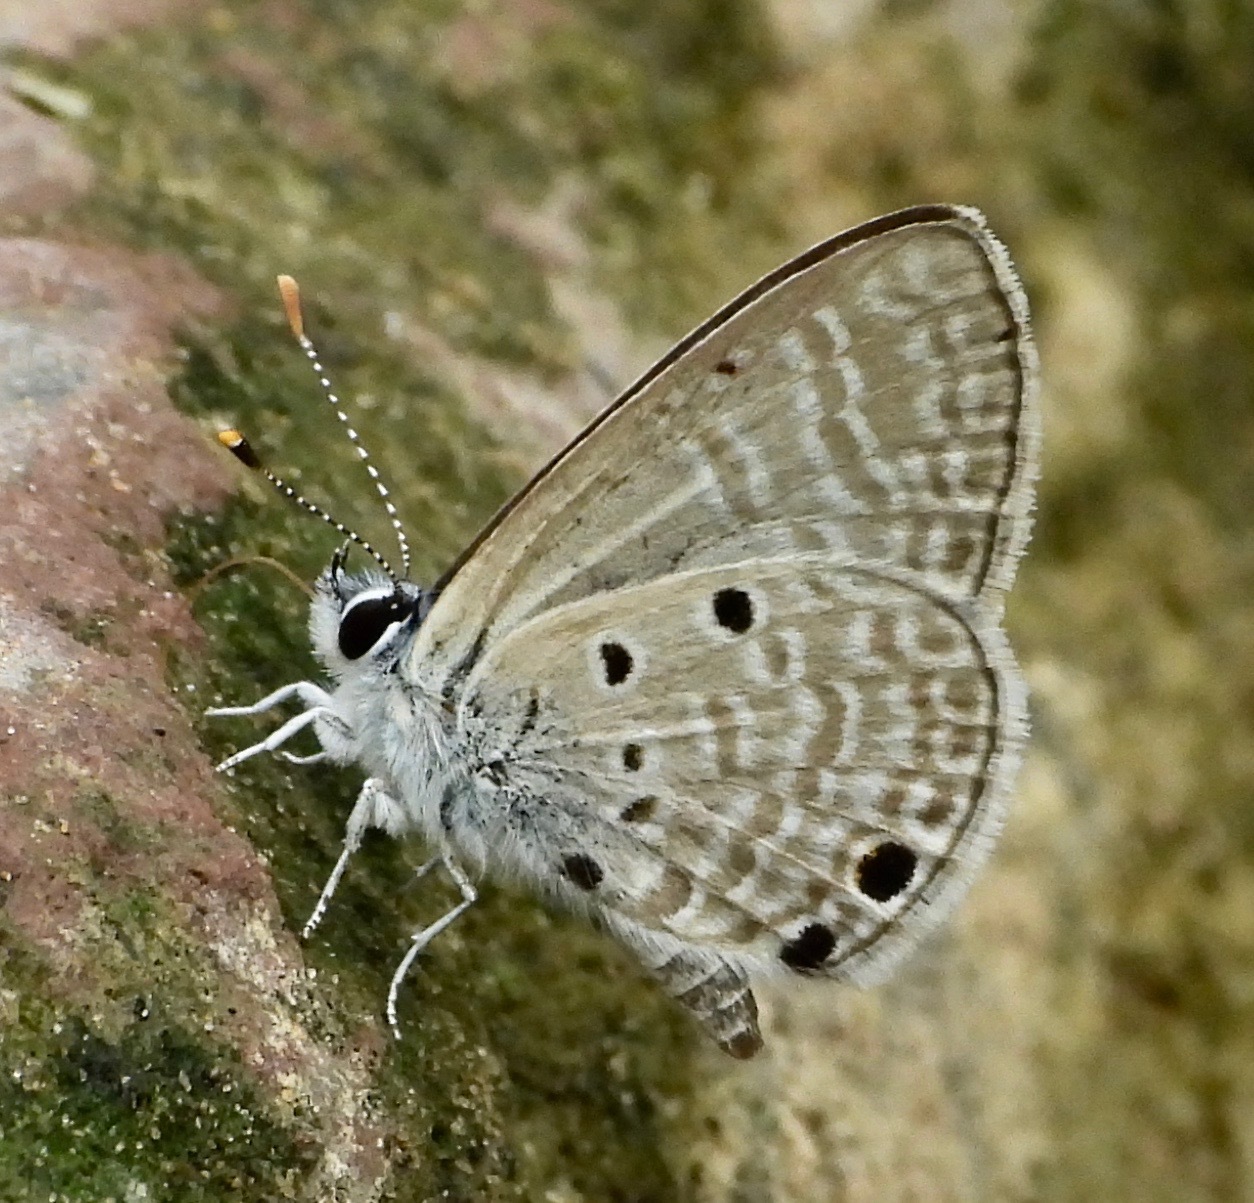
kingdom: Animalia
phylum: Arthropoda
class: Insecta
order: Lepidoptera
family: Lycaenidae
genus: Azanus
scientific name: Azanus ubaldus
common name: Desert babul blue
